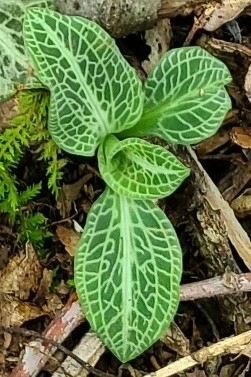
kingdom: Plantae
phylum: Tracheophyta
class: Liliopsida
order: Asparagales
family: Orchidaceae
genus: Goodyera
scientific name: Goodyera pubescens
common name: Downy rattlesnake-plantain
